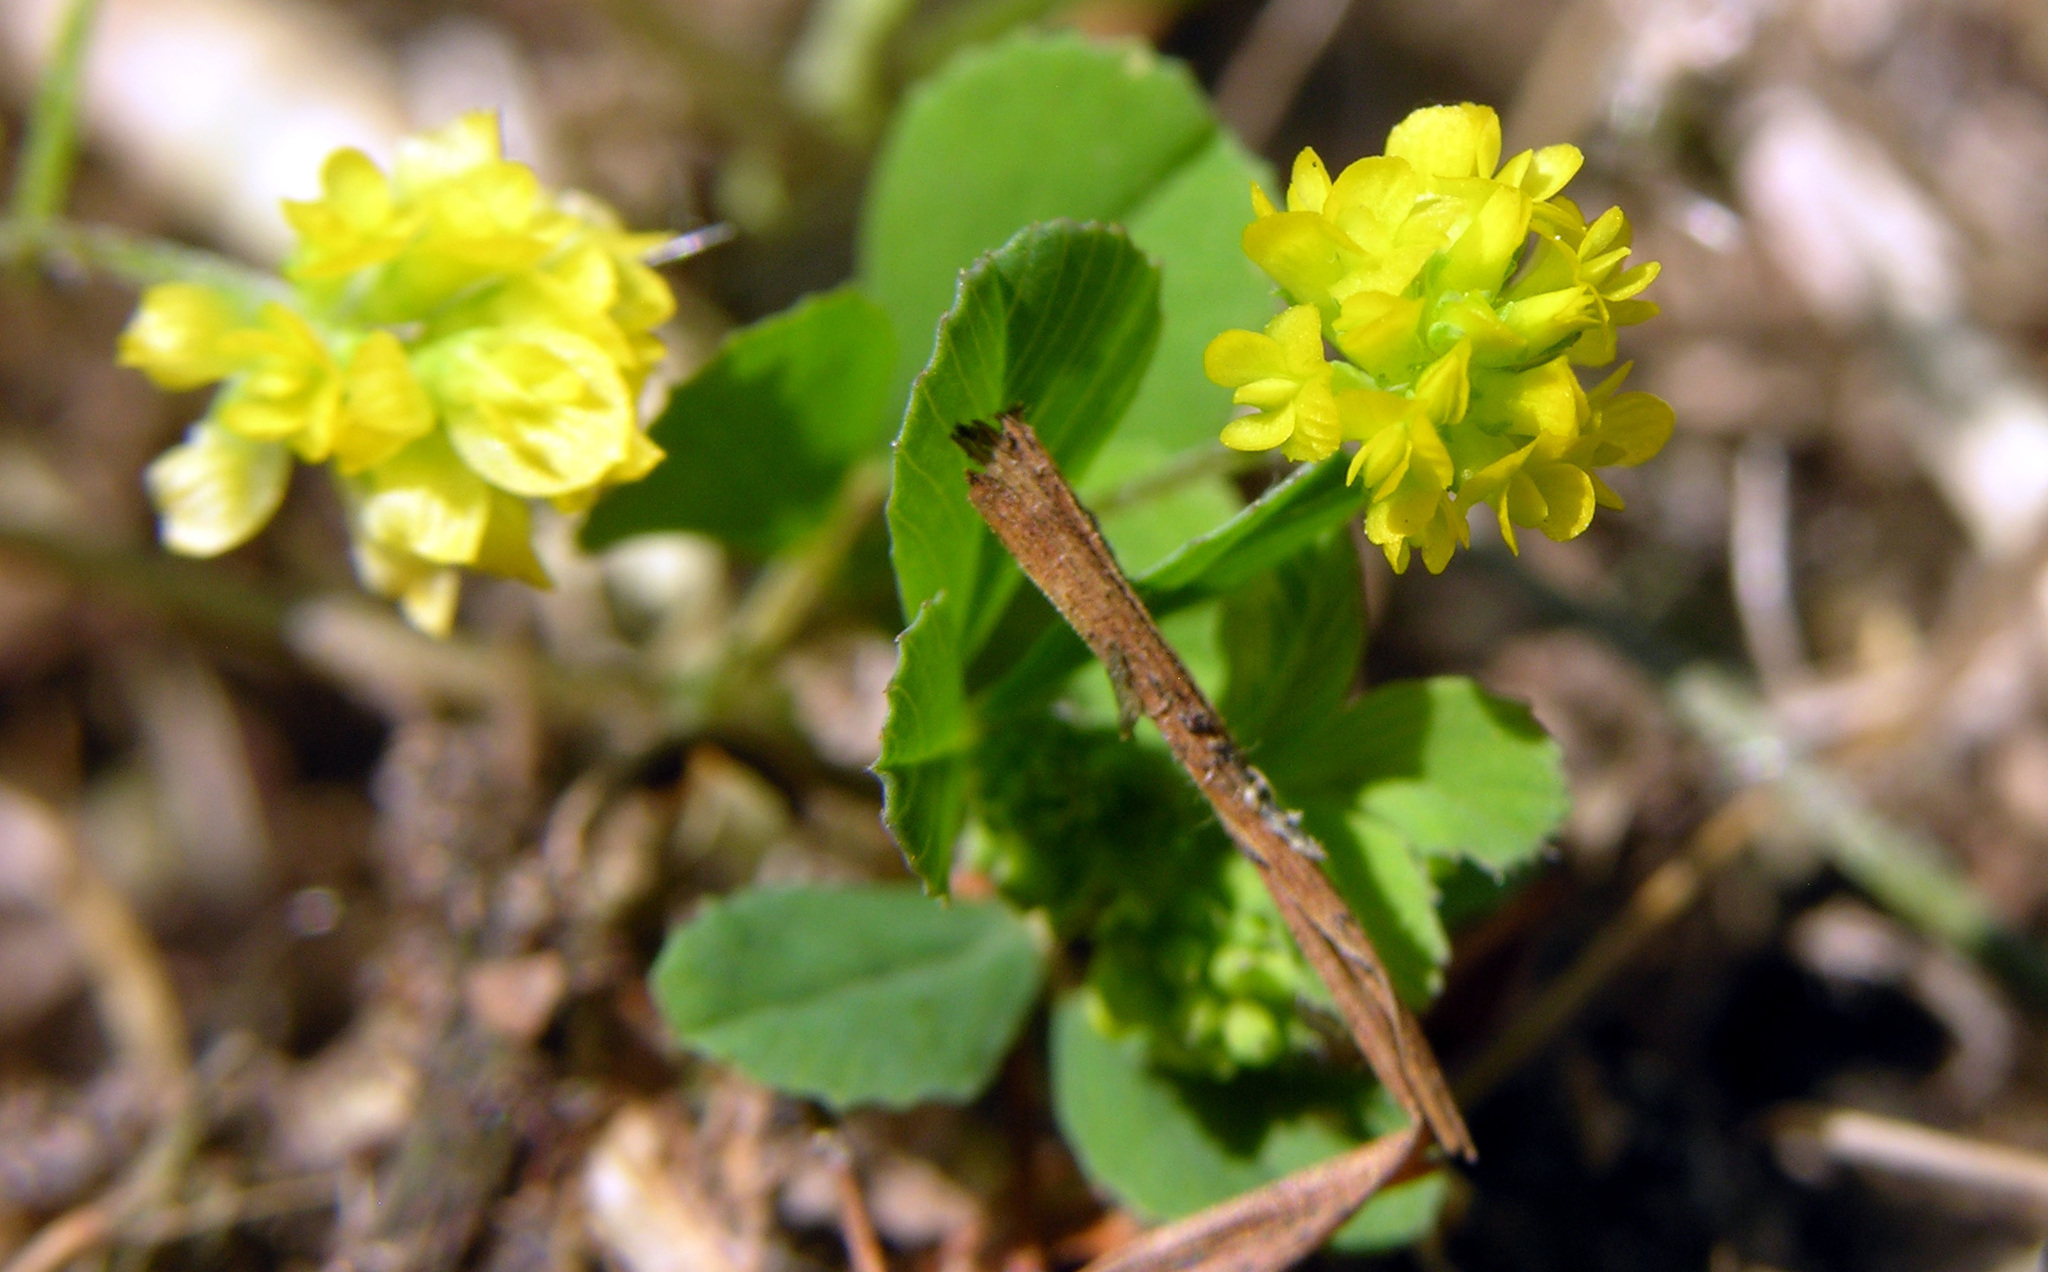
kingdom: Plantae
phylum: Tracheophyta
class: Magnoliopsida
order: Fabales
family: Fabaceae
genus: Trifolium
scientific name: Trifolium dubium
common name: Suckling clover
